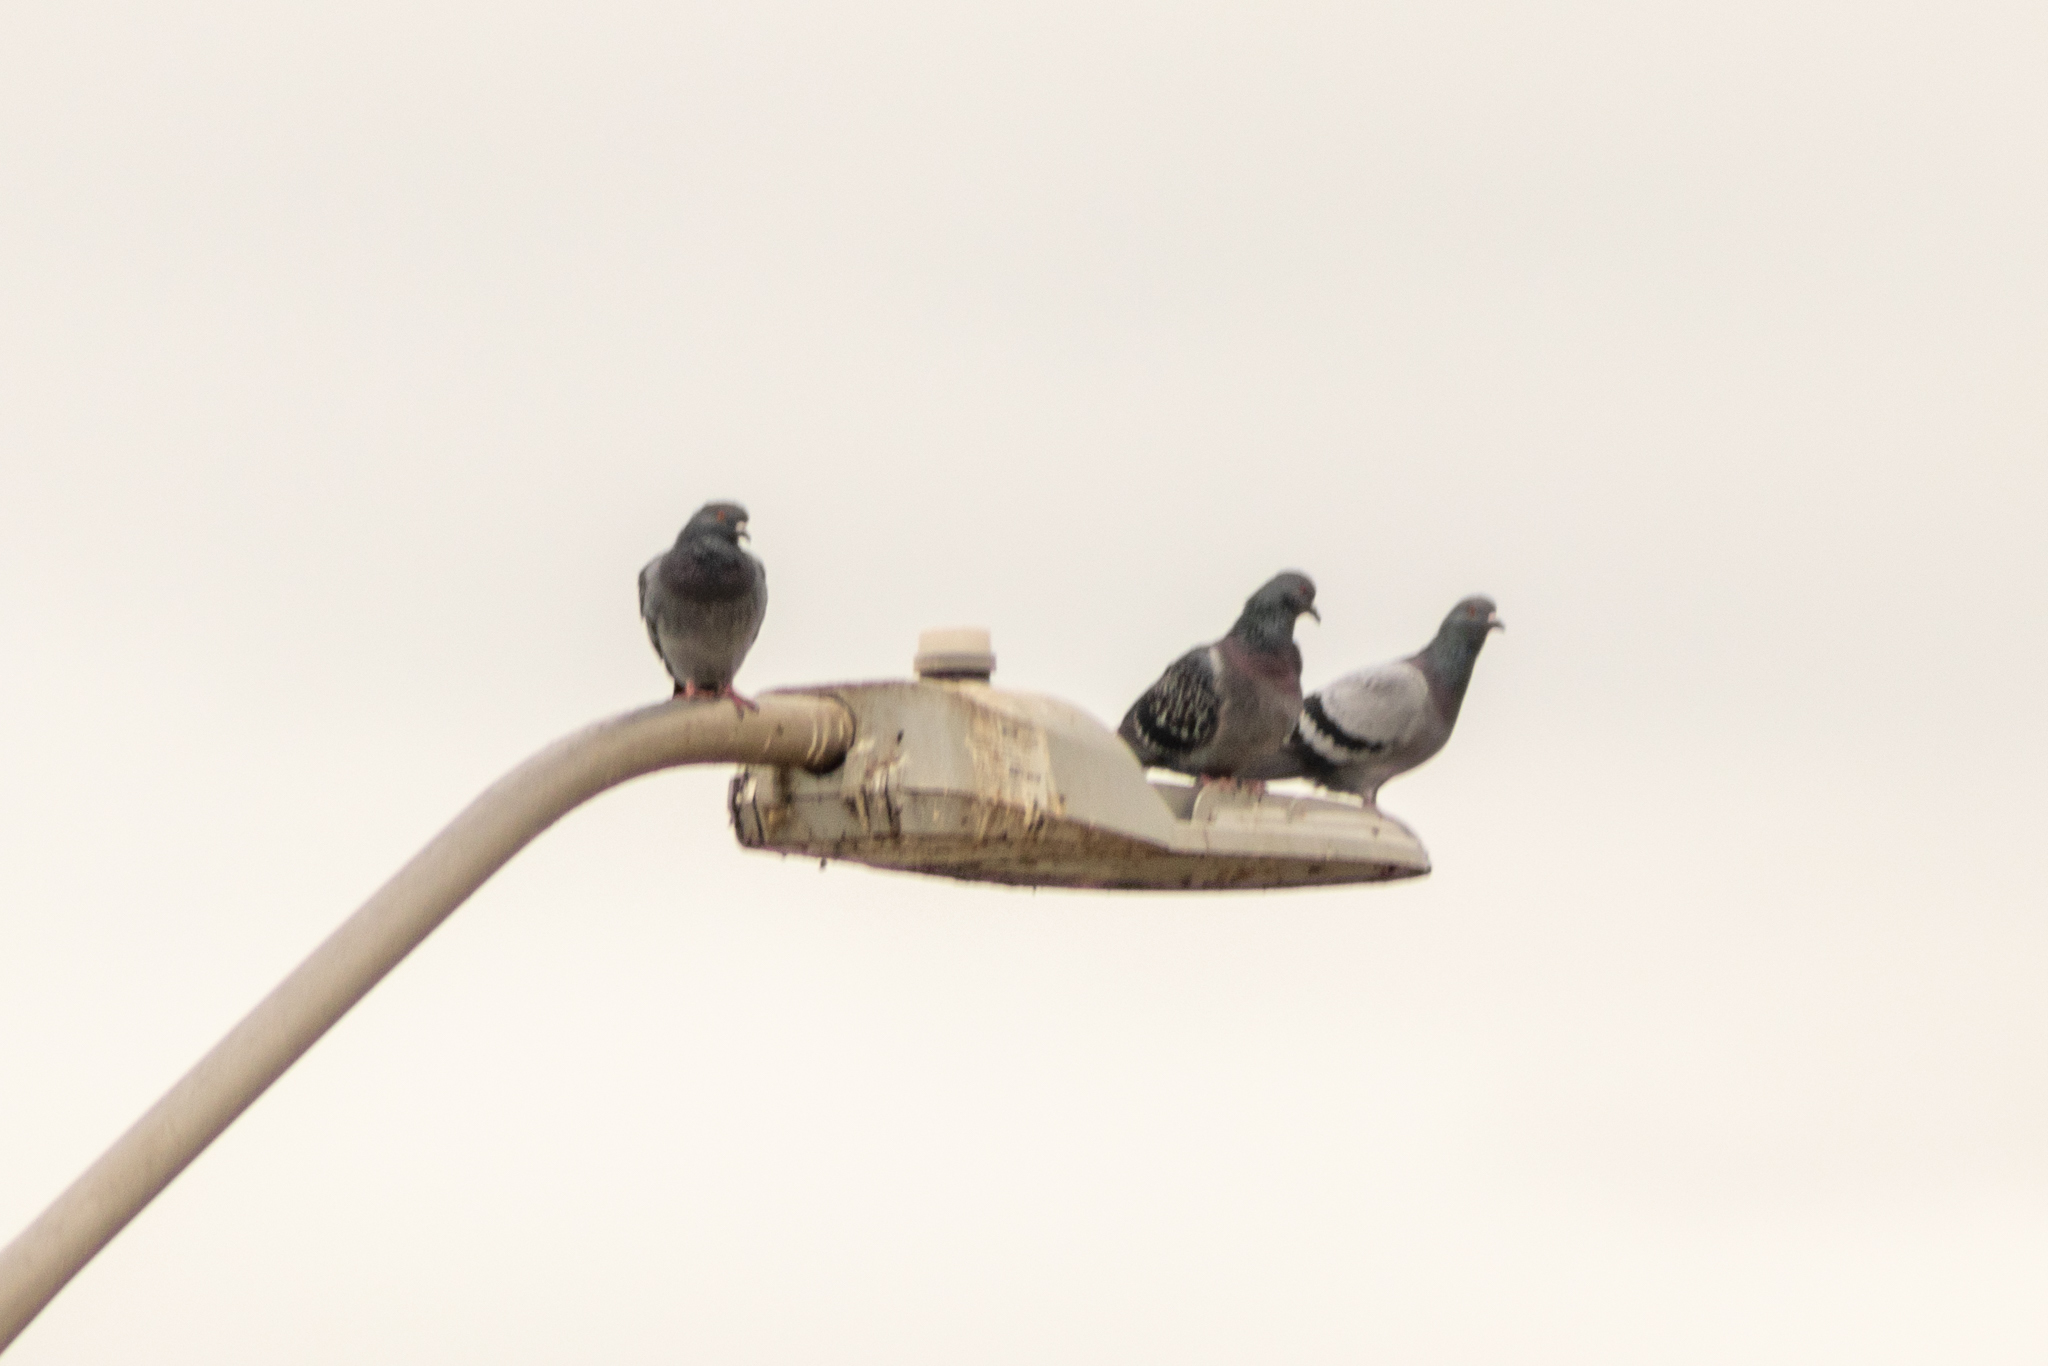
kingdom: Animalia
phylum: Chordata
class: Aves
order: Columbiformes
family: Columbidae
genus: Columba
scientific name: Columba livia
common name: Rock pigeon
